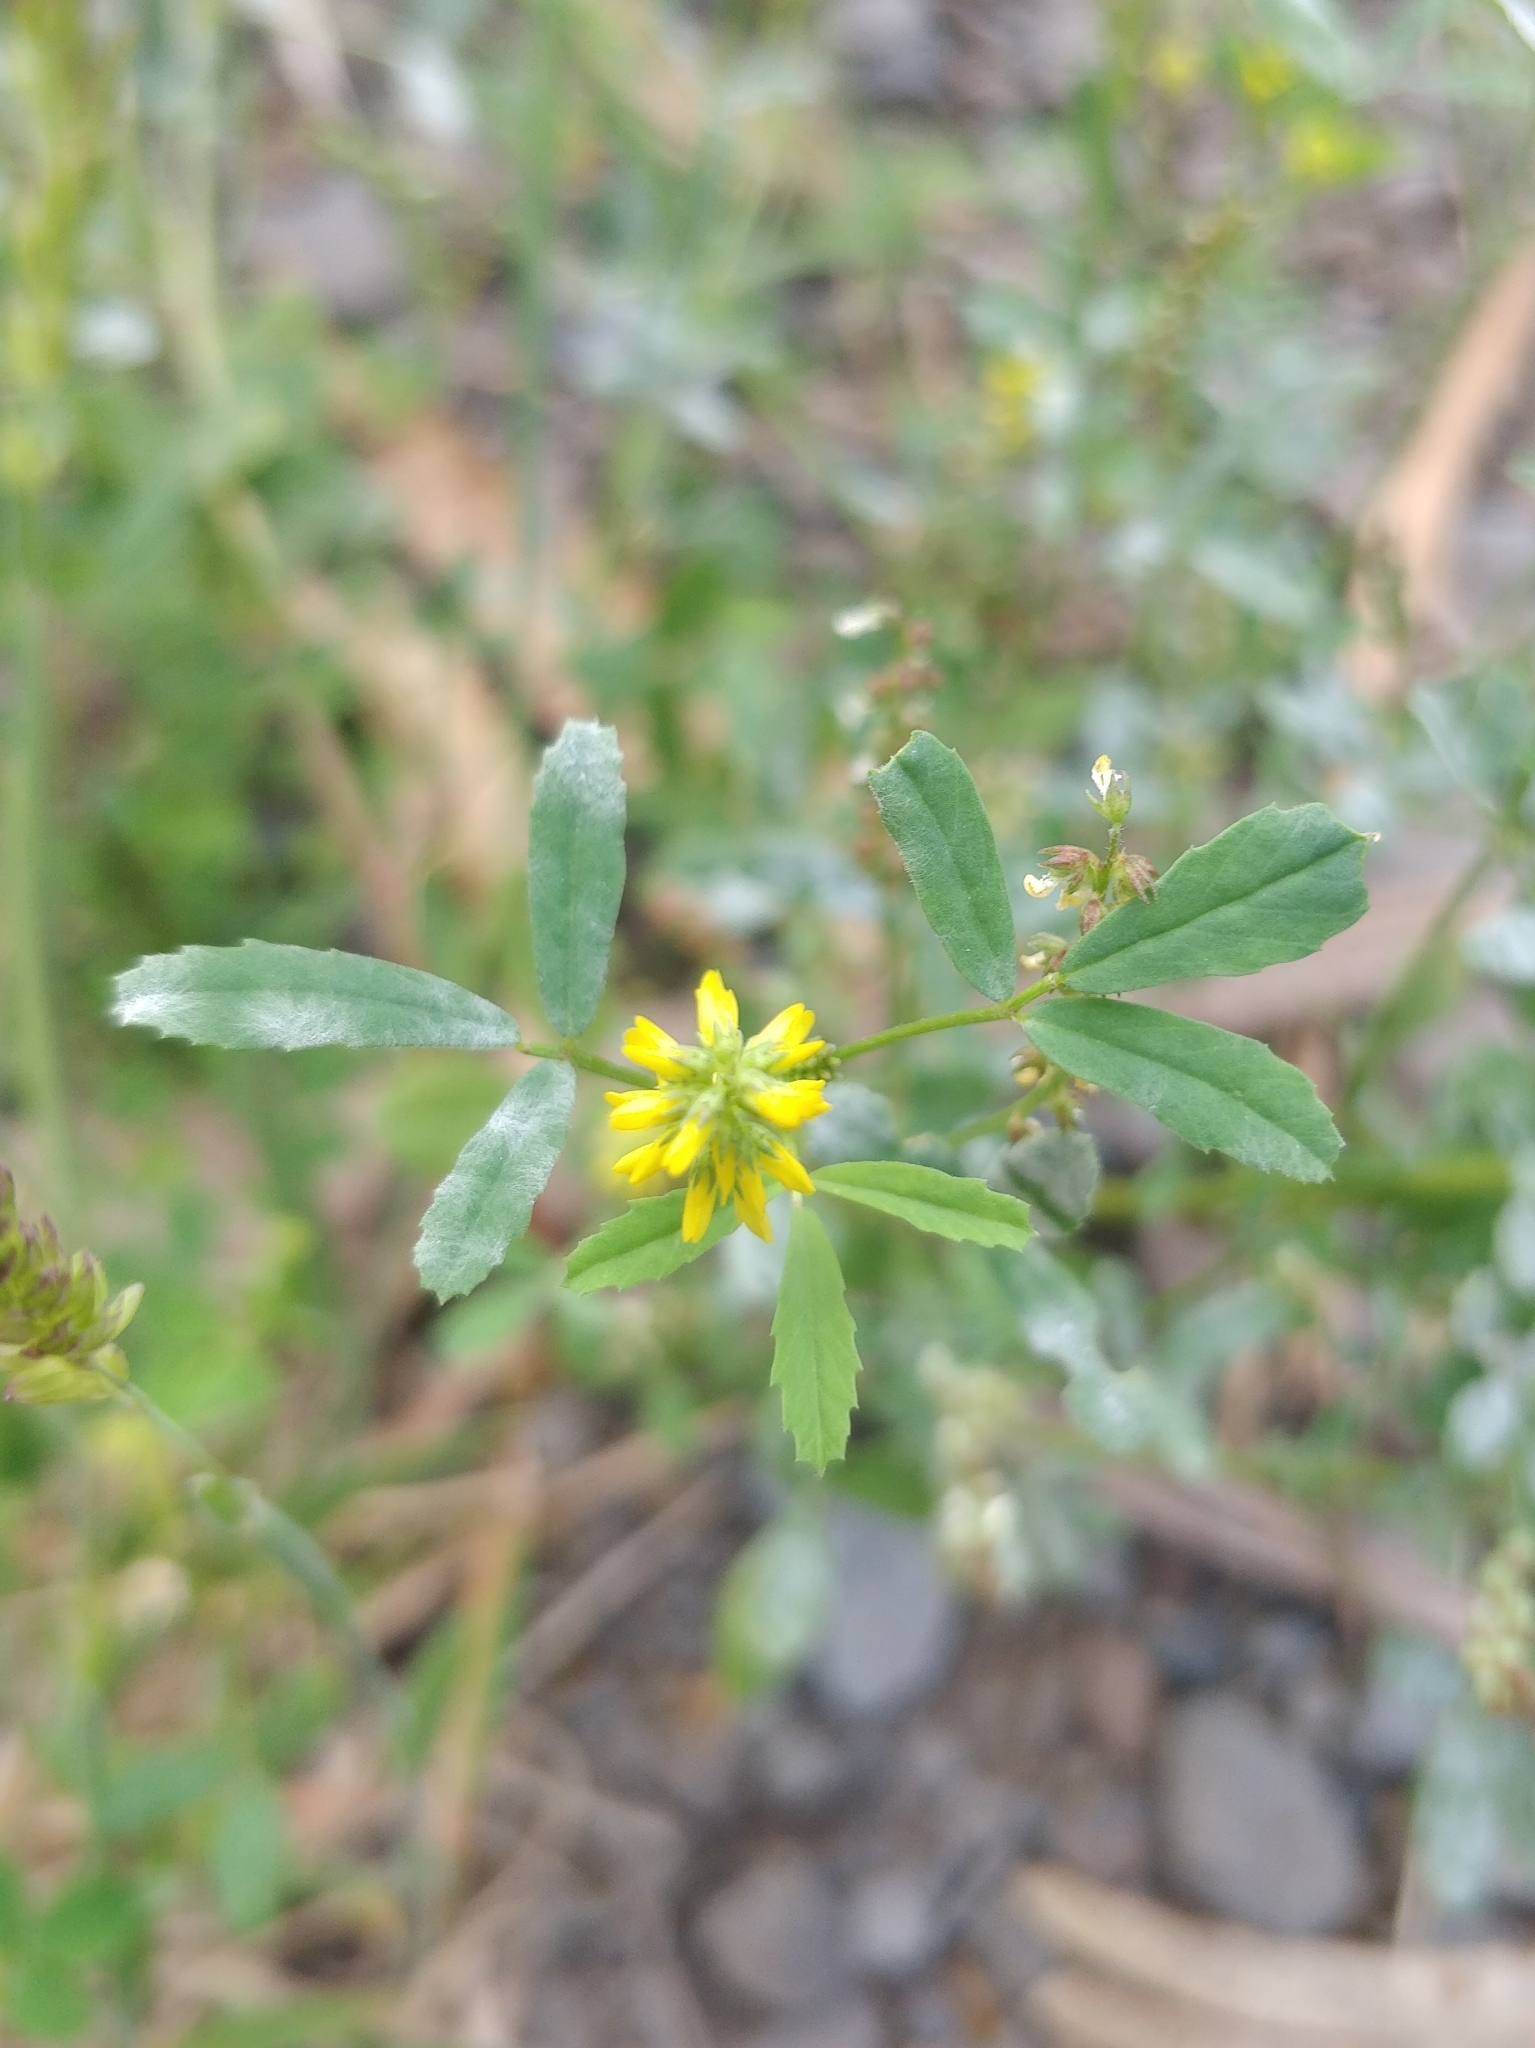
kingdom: Plantae
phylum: Tracheophyta
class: Magnoliopsida
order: Fabales
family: Fabaceae
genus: Melilotus
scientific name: Melilotus indicus
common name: Small melilot
